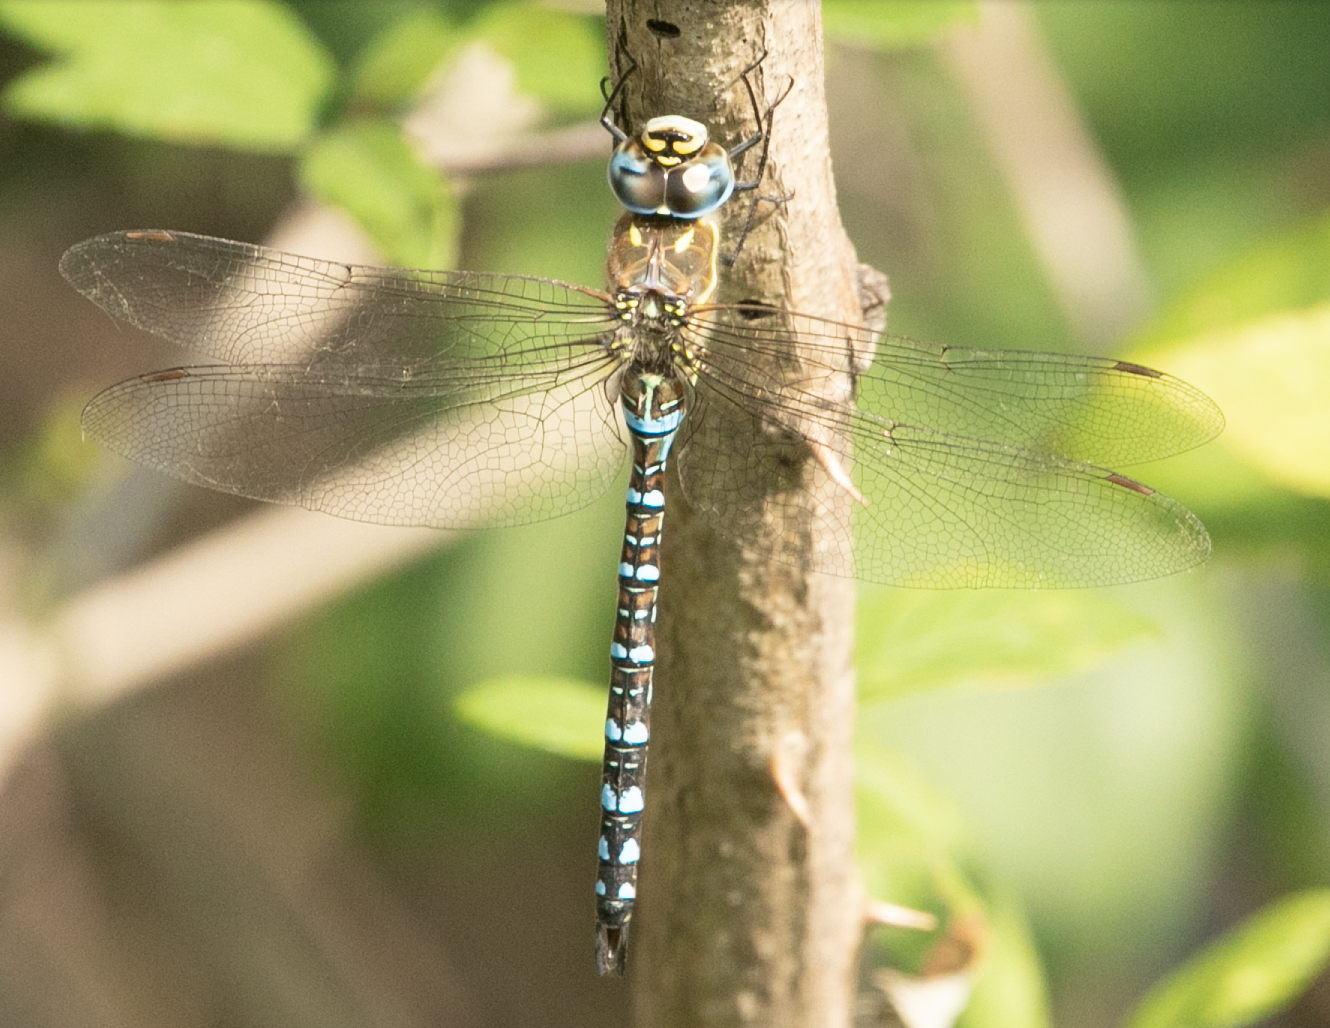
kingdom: Animalia
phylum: Arthropoda
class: Insecta
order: Odonata
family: Aeshnidae
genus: Aeshna
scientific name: Aeshna mixta
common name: Migrant hawker
